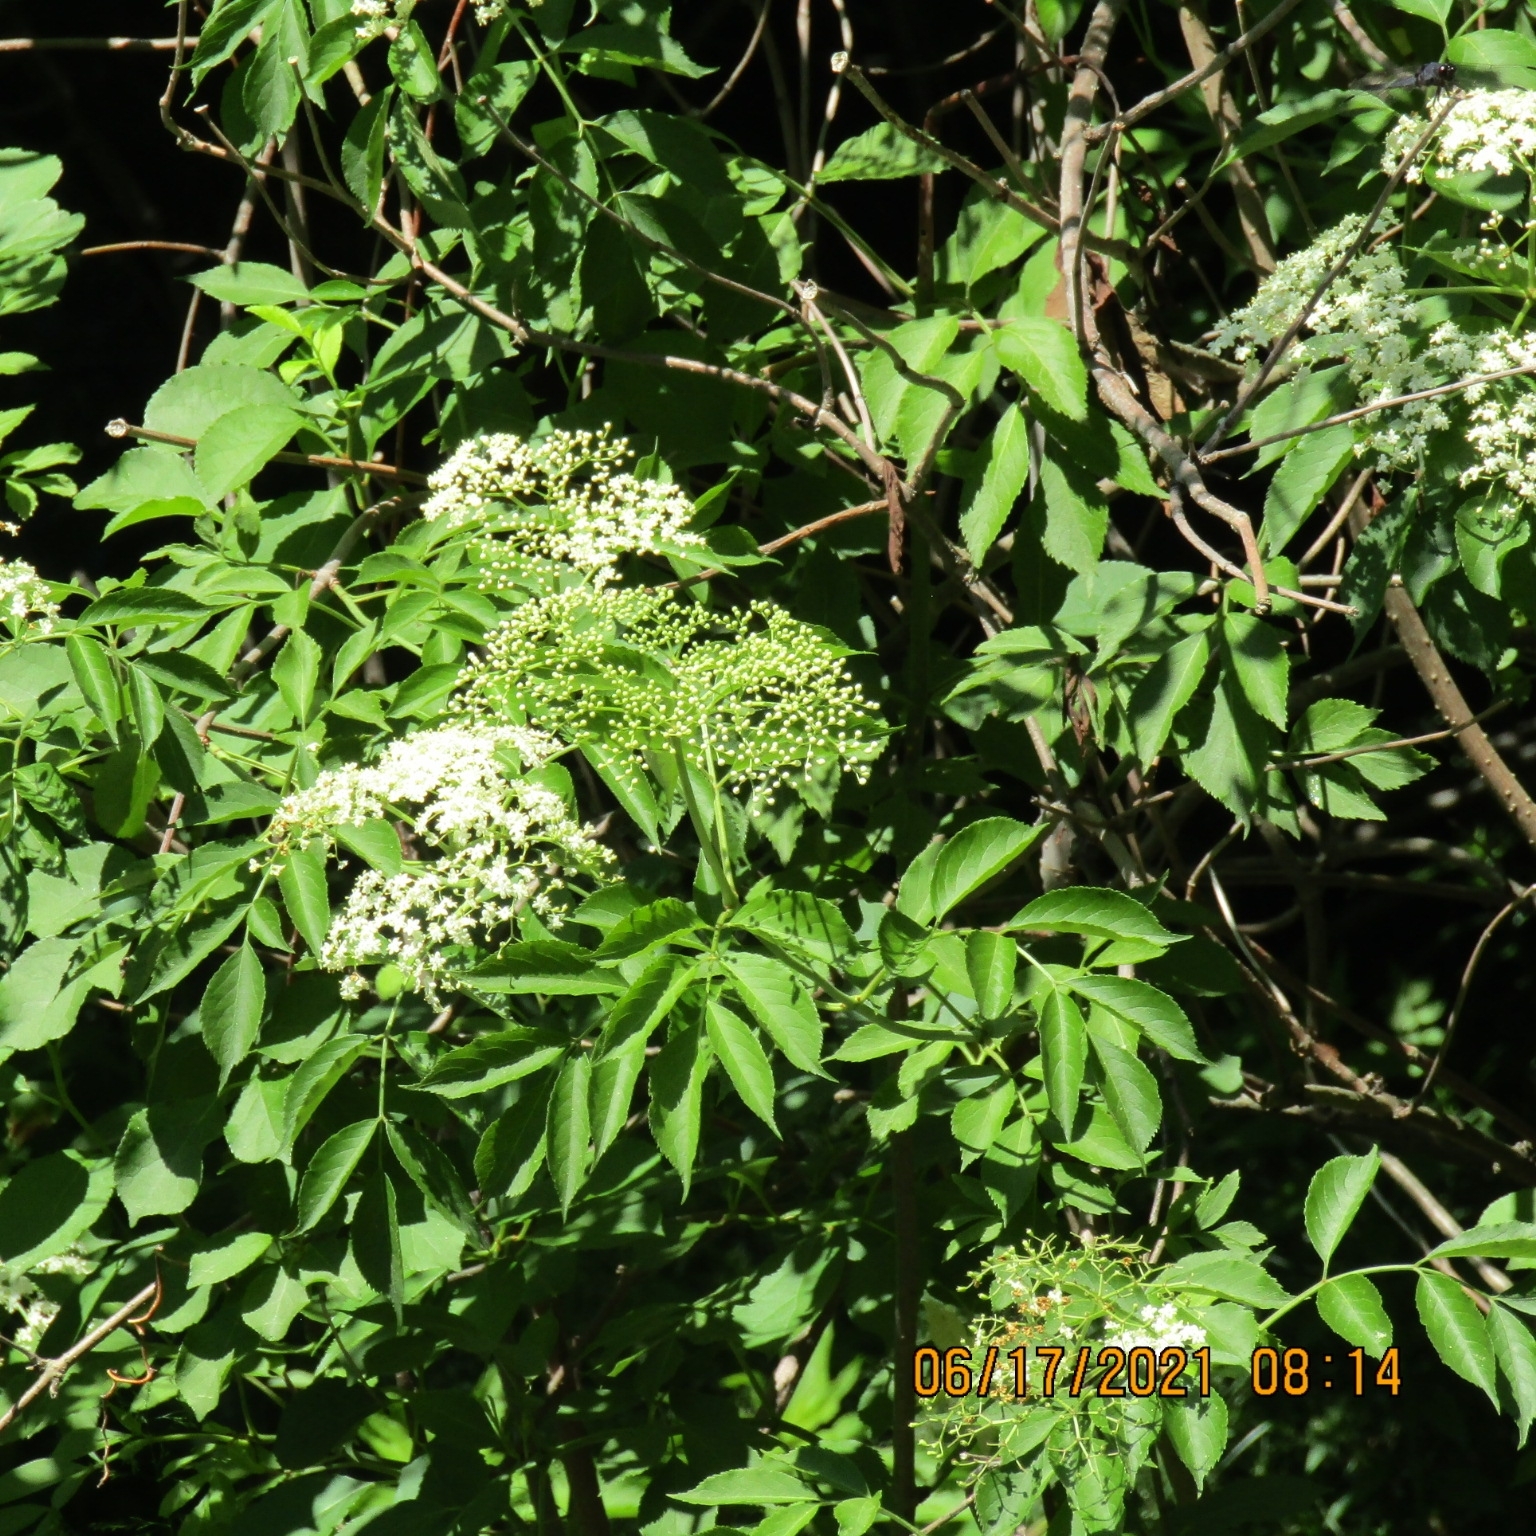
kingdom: Plantae
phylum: Tracheophyta
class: Magnoliopsida
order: Dipsacales
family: Viburnaceae
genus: Sambucus
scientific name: Sambucus canadensis
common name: American elder
